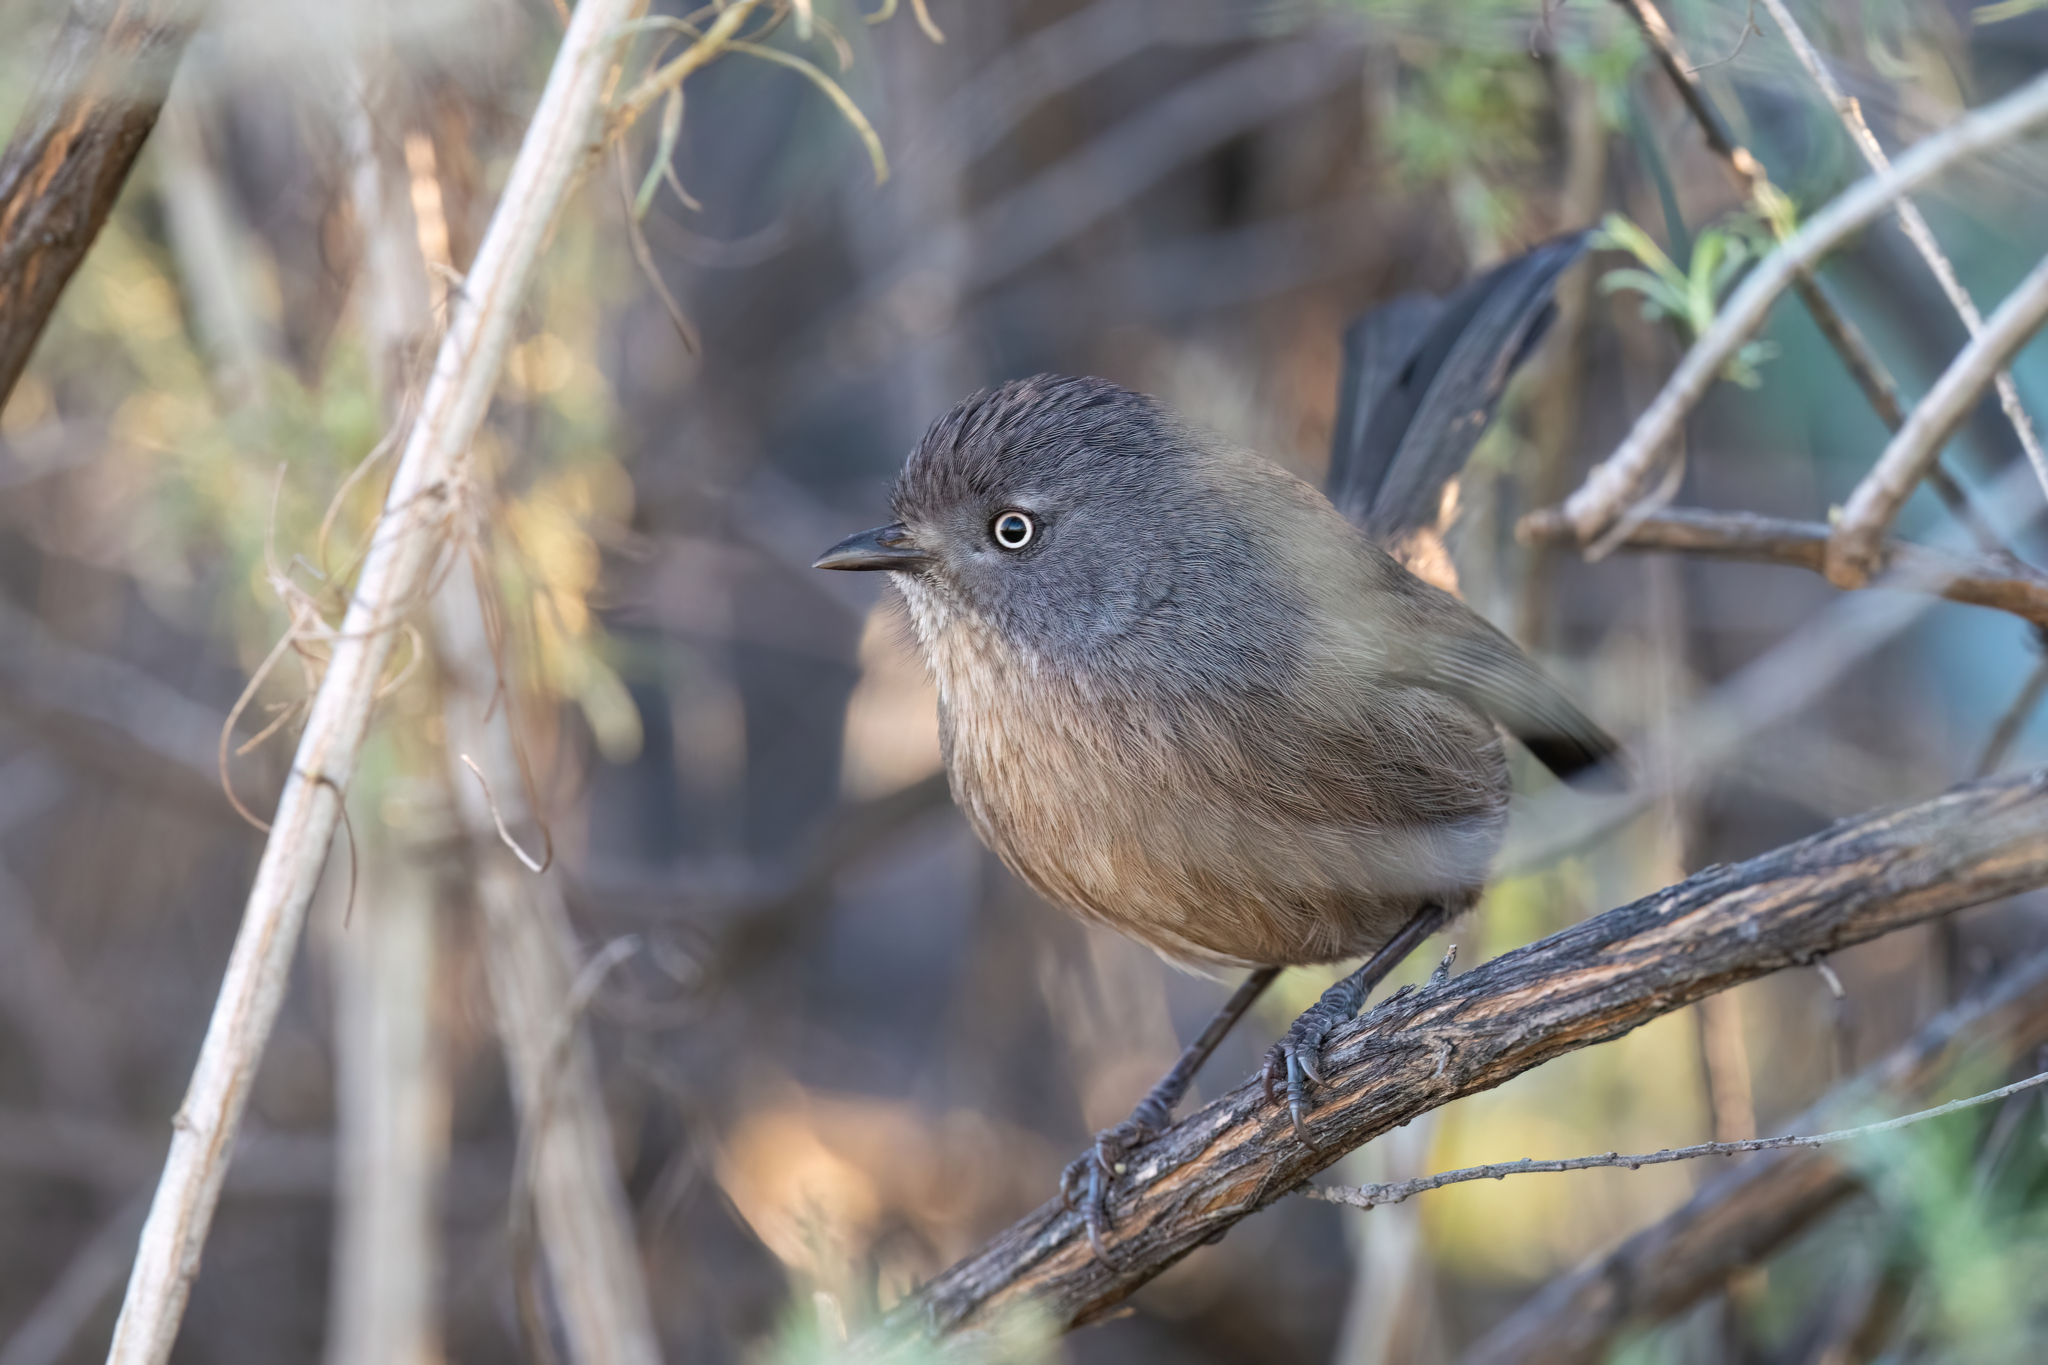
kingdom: Animalia
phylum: Chordata
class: Aves
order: Passeriformes
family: Sylviidae
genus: Chamaea
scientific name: Chamaea fasciata
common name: Wrentit
